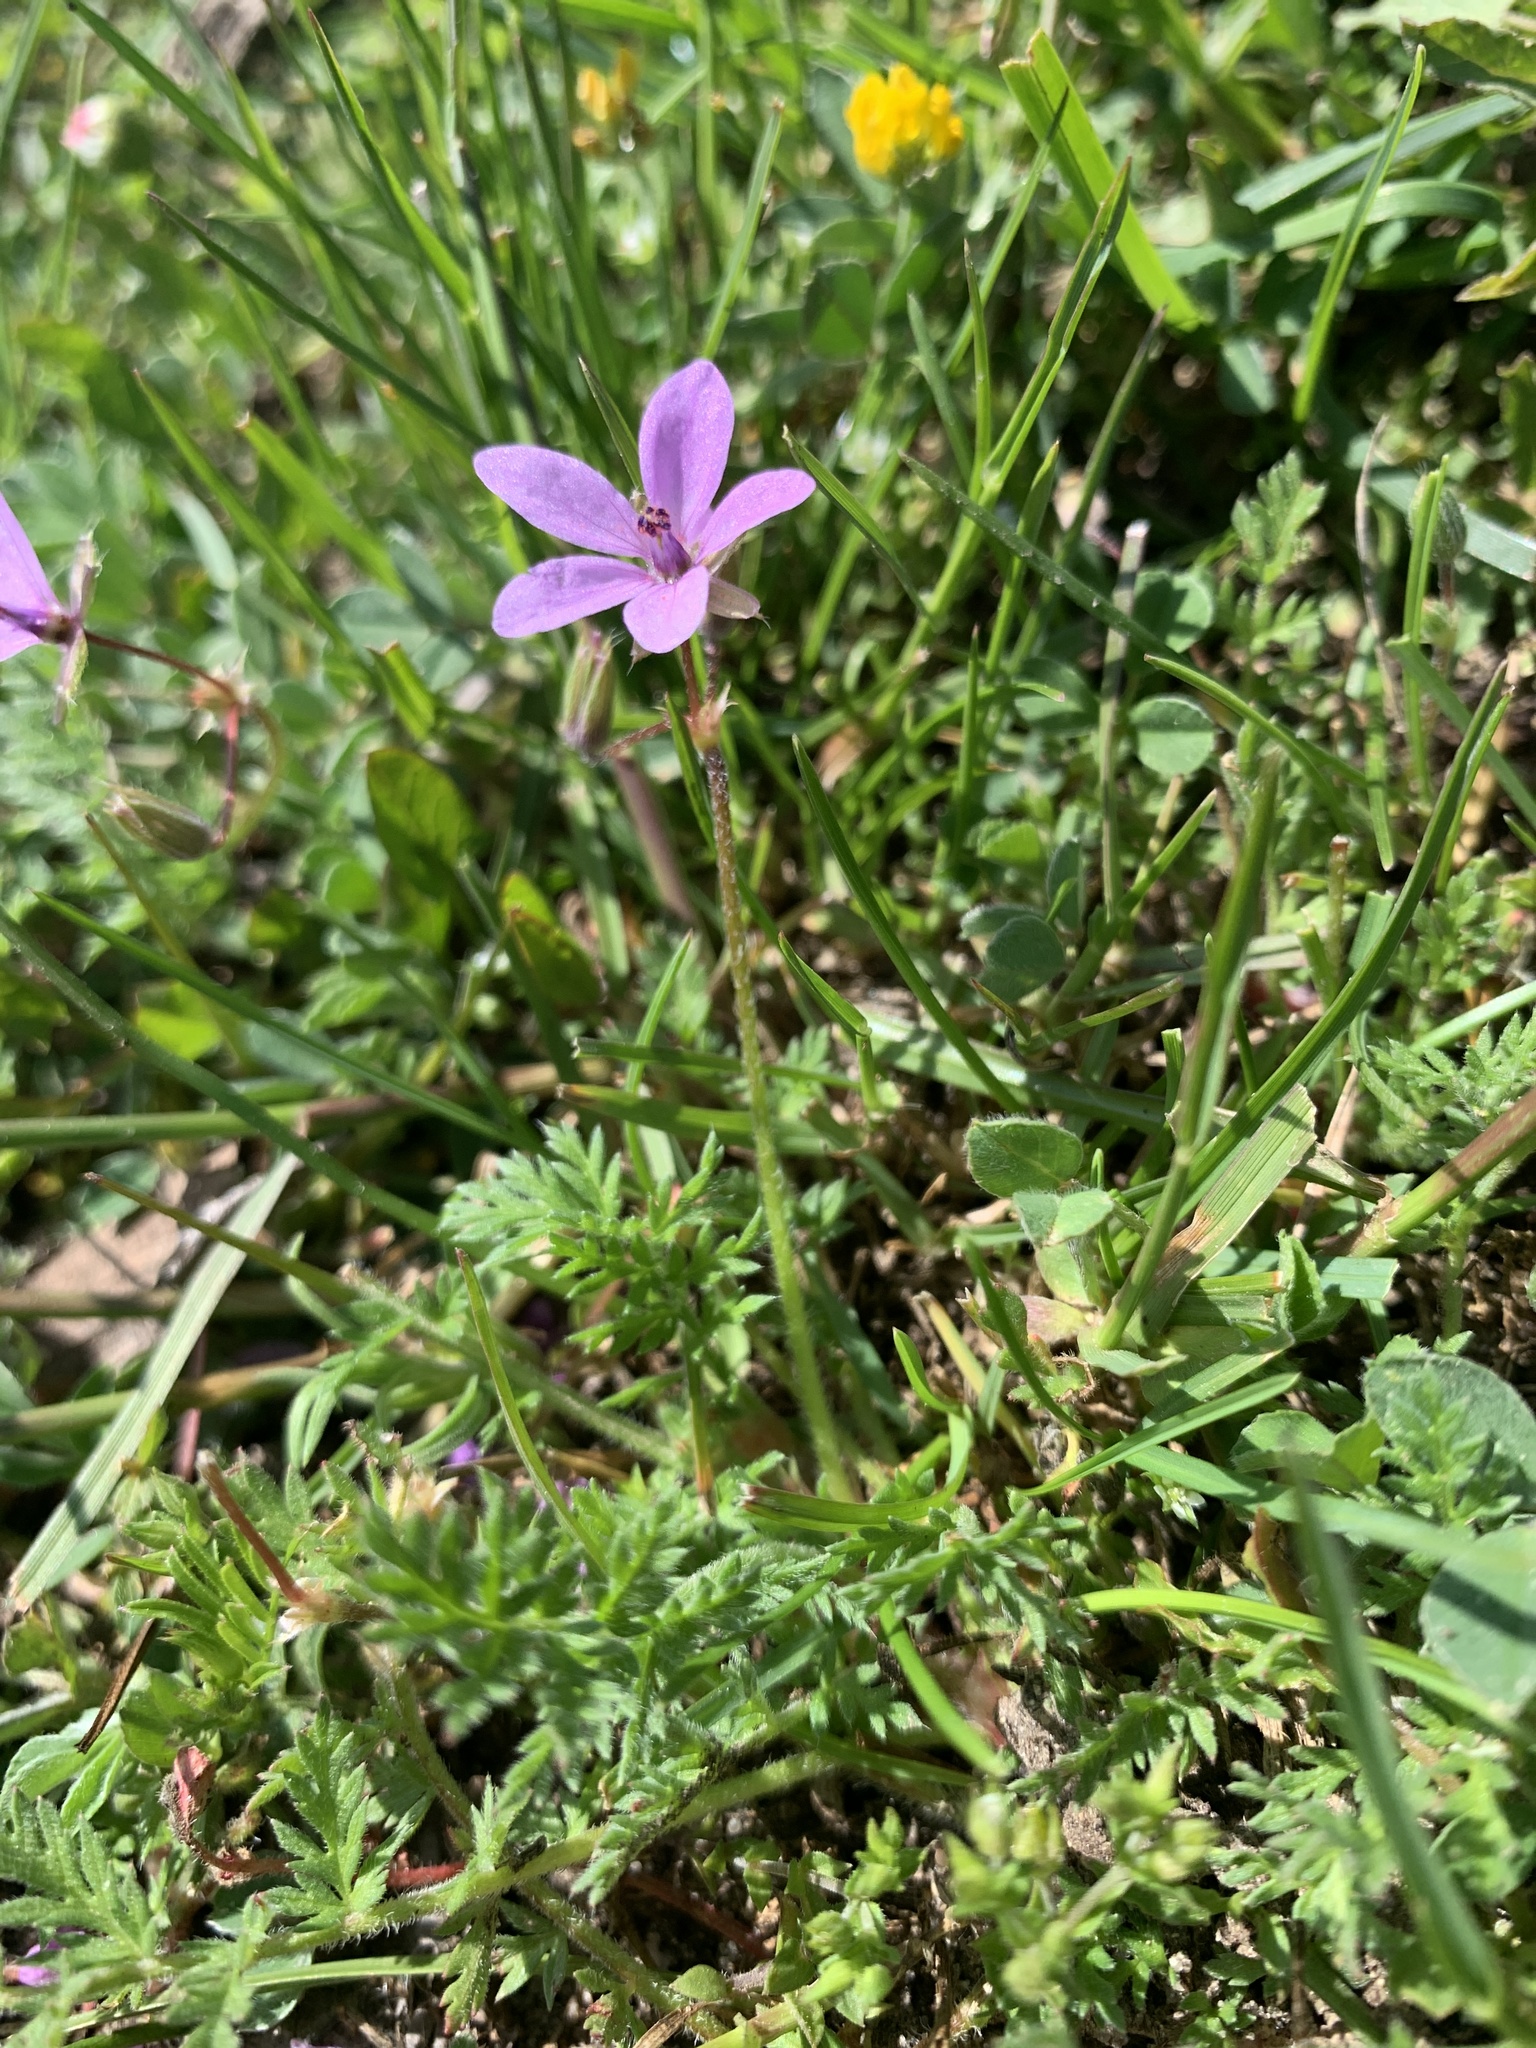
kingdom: Plantae
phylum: Tracheophyta
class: Magnoliopsida
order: Geraniales
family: Geraniaceae
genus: Erodium
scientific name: Erodium cicutarium
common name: Common stork's-bill
